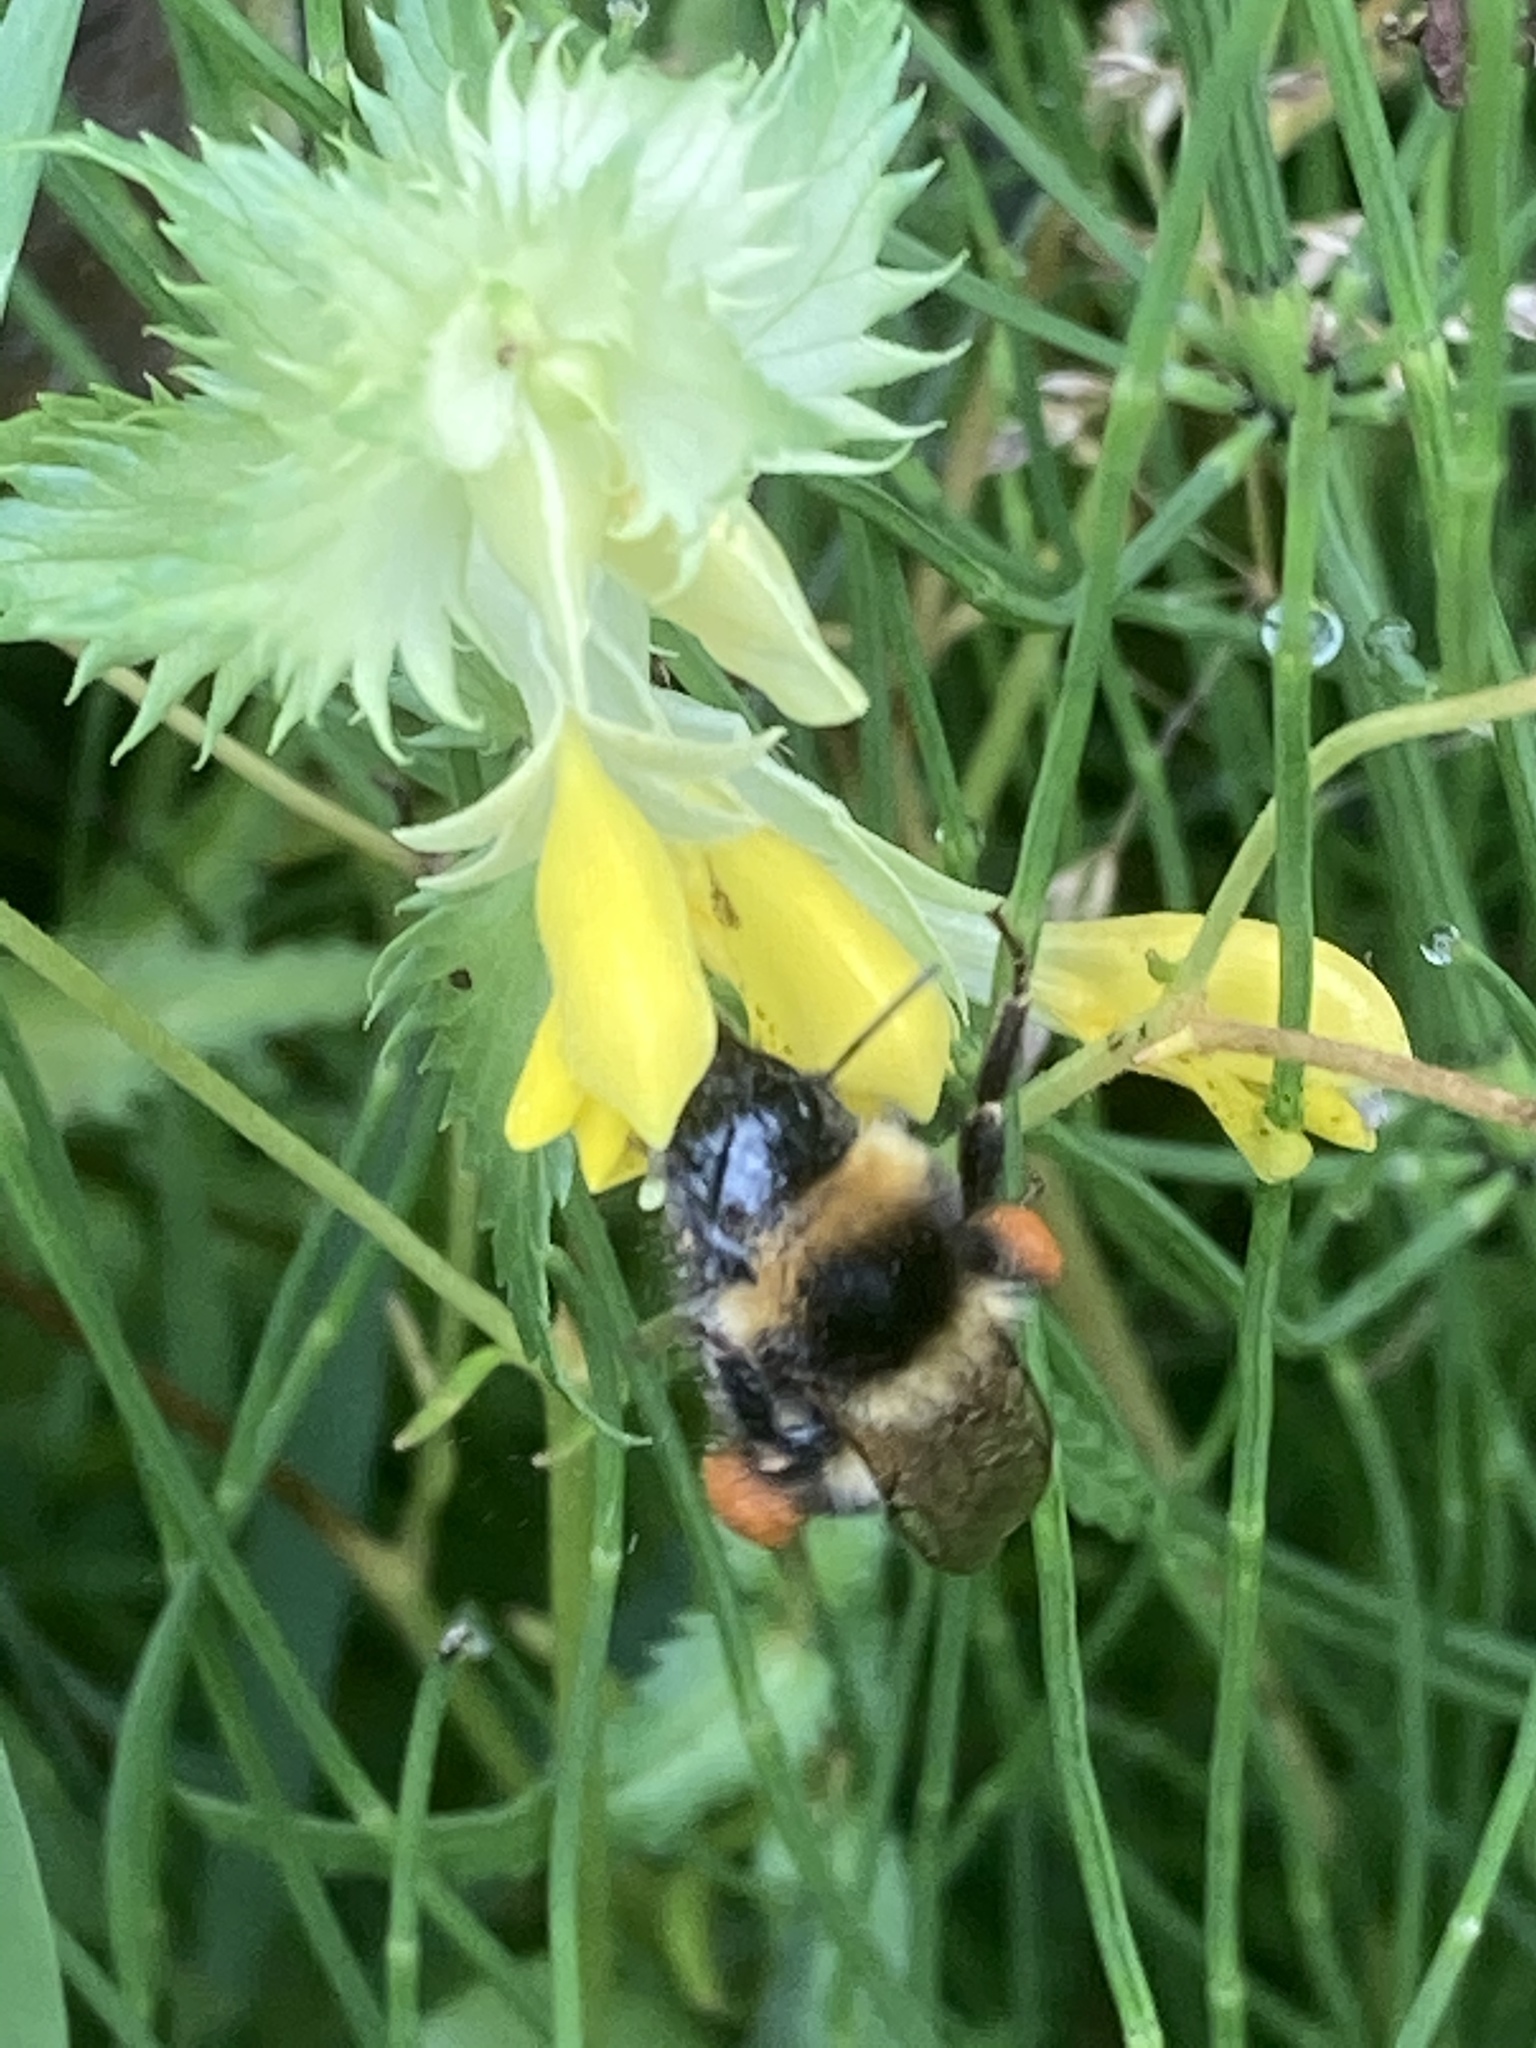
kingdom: Animalia
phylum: Arthropoda
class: Insecta
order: Hymenoptera
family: Apidae
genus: Bombus
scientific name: Bombus hortorum
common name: Garden bumblebee
